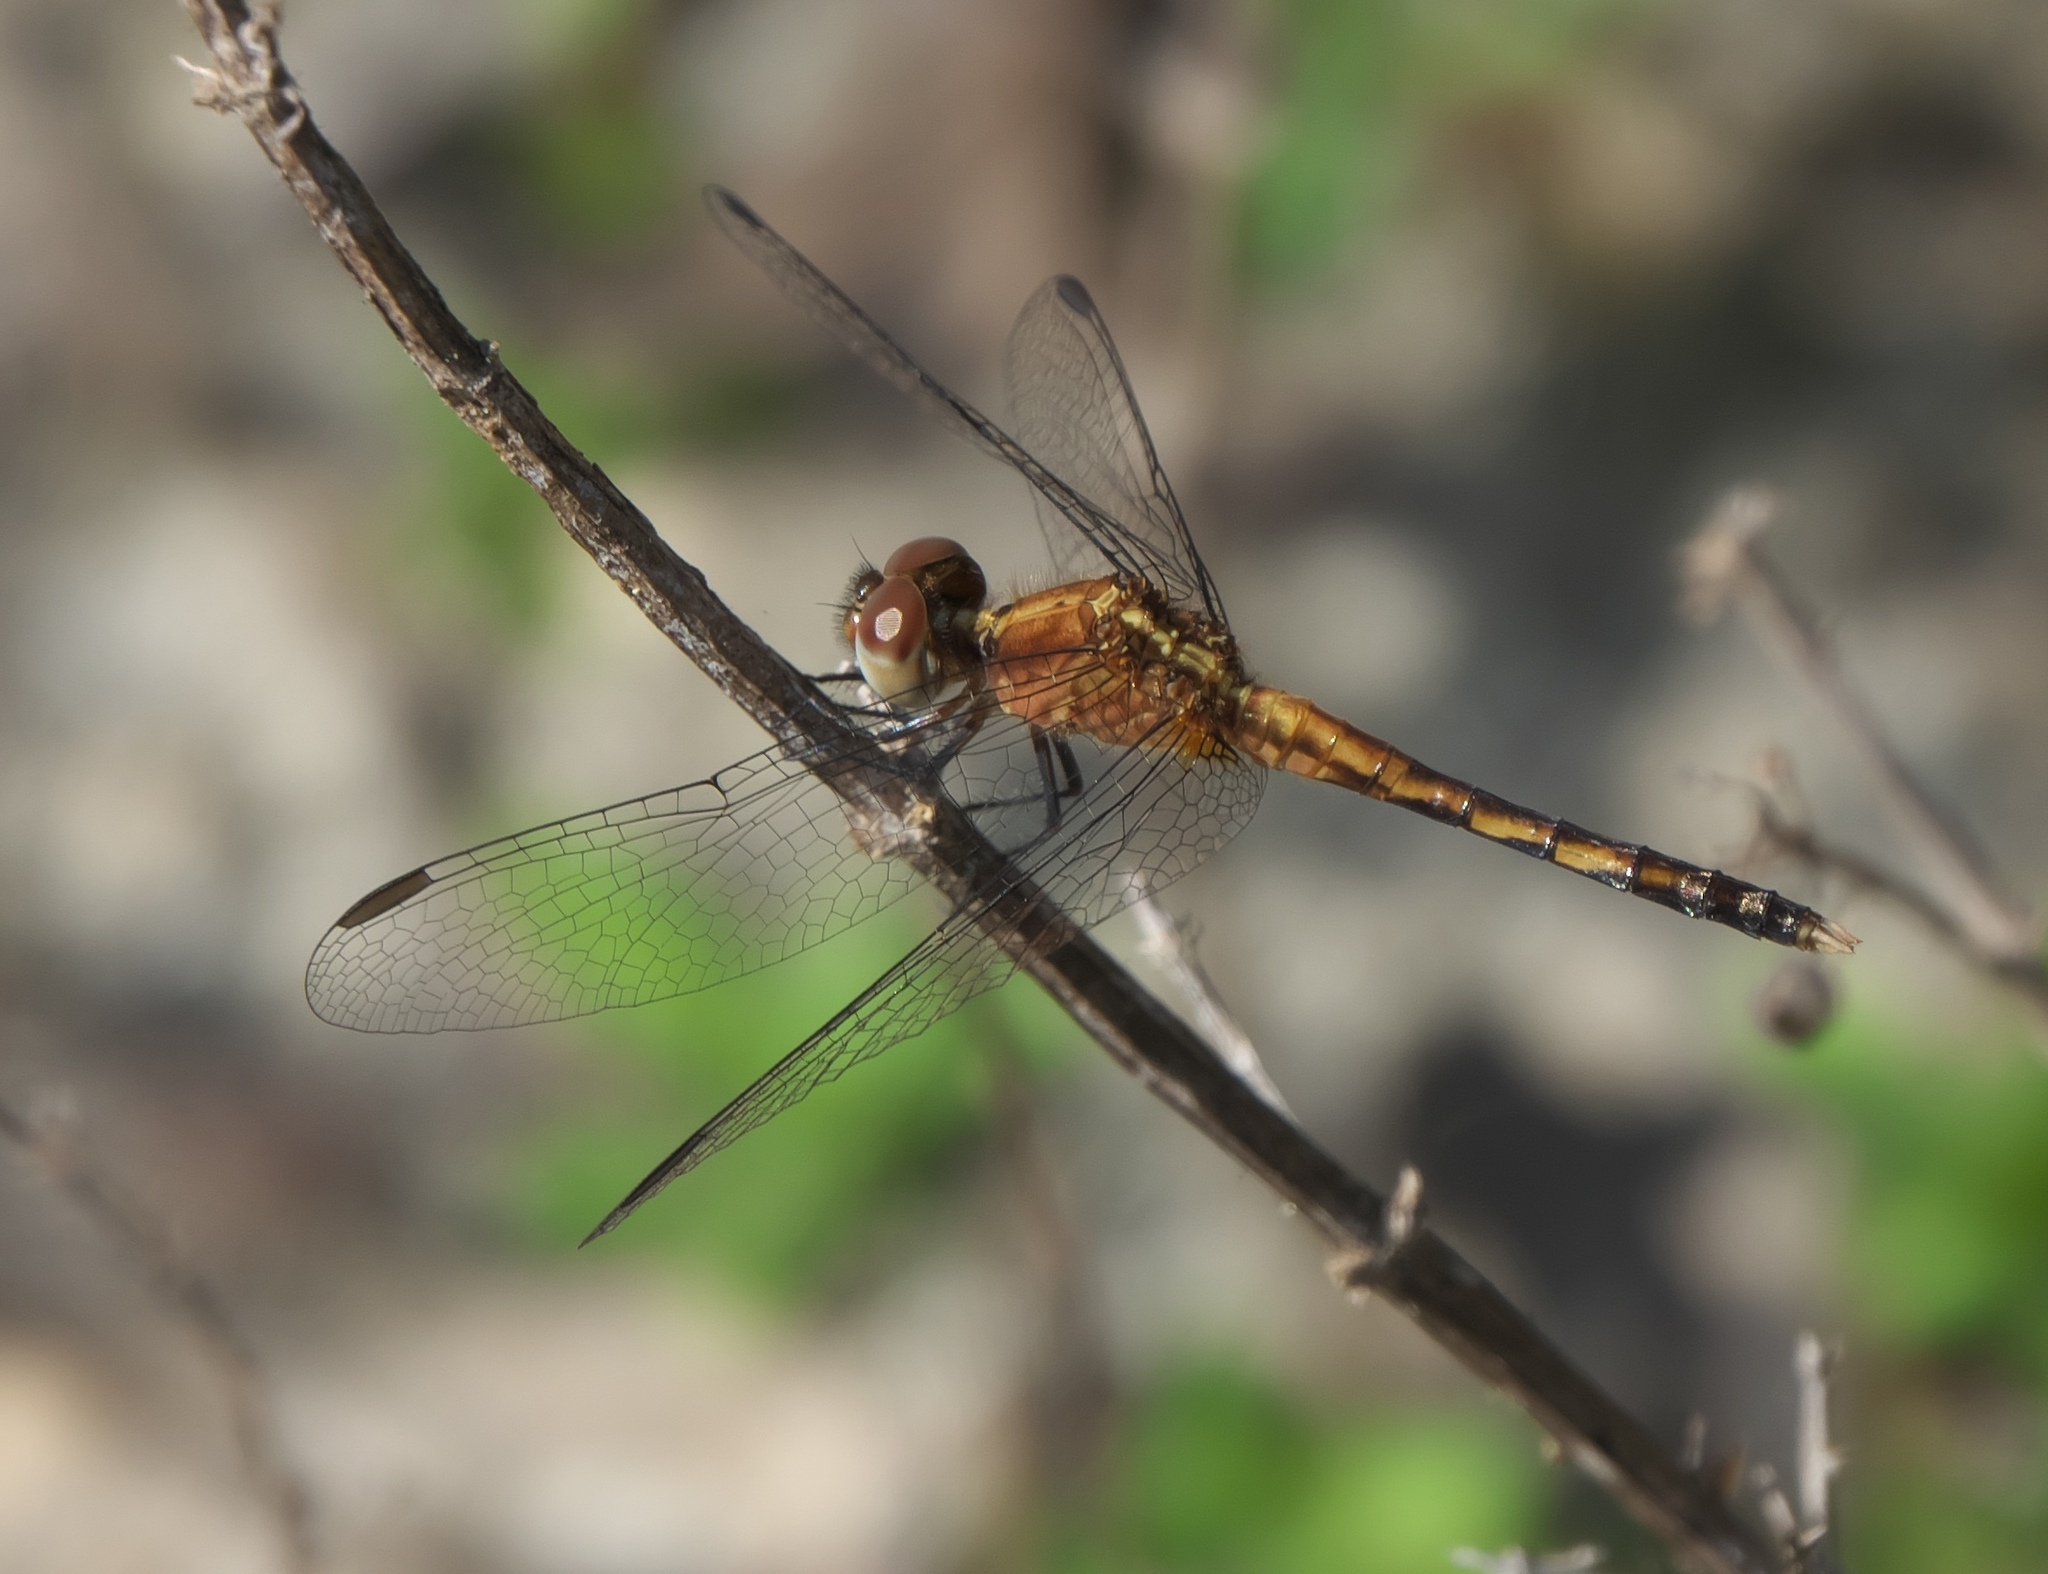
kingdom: Animalia
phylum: Arthropoda
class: Insecta
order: Odonata
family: Libellulidae
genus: Erythrodiplax
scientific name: Erythrodiplax minuscula
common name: Little blue dragonlet
